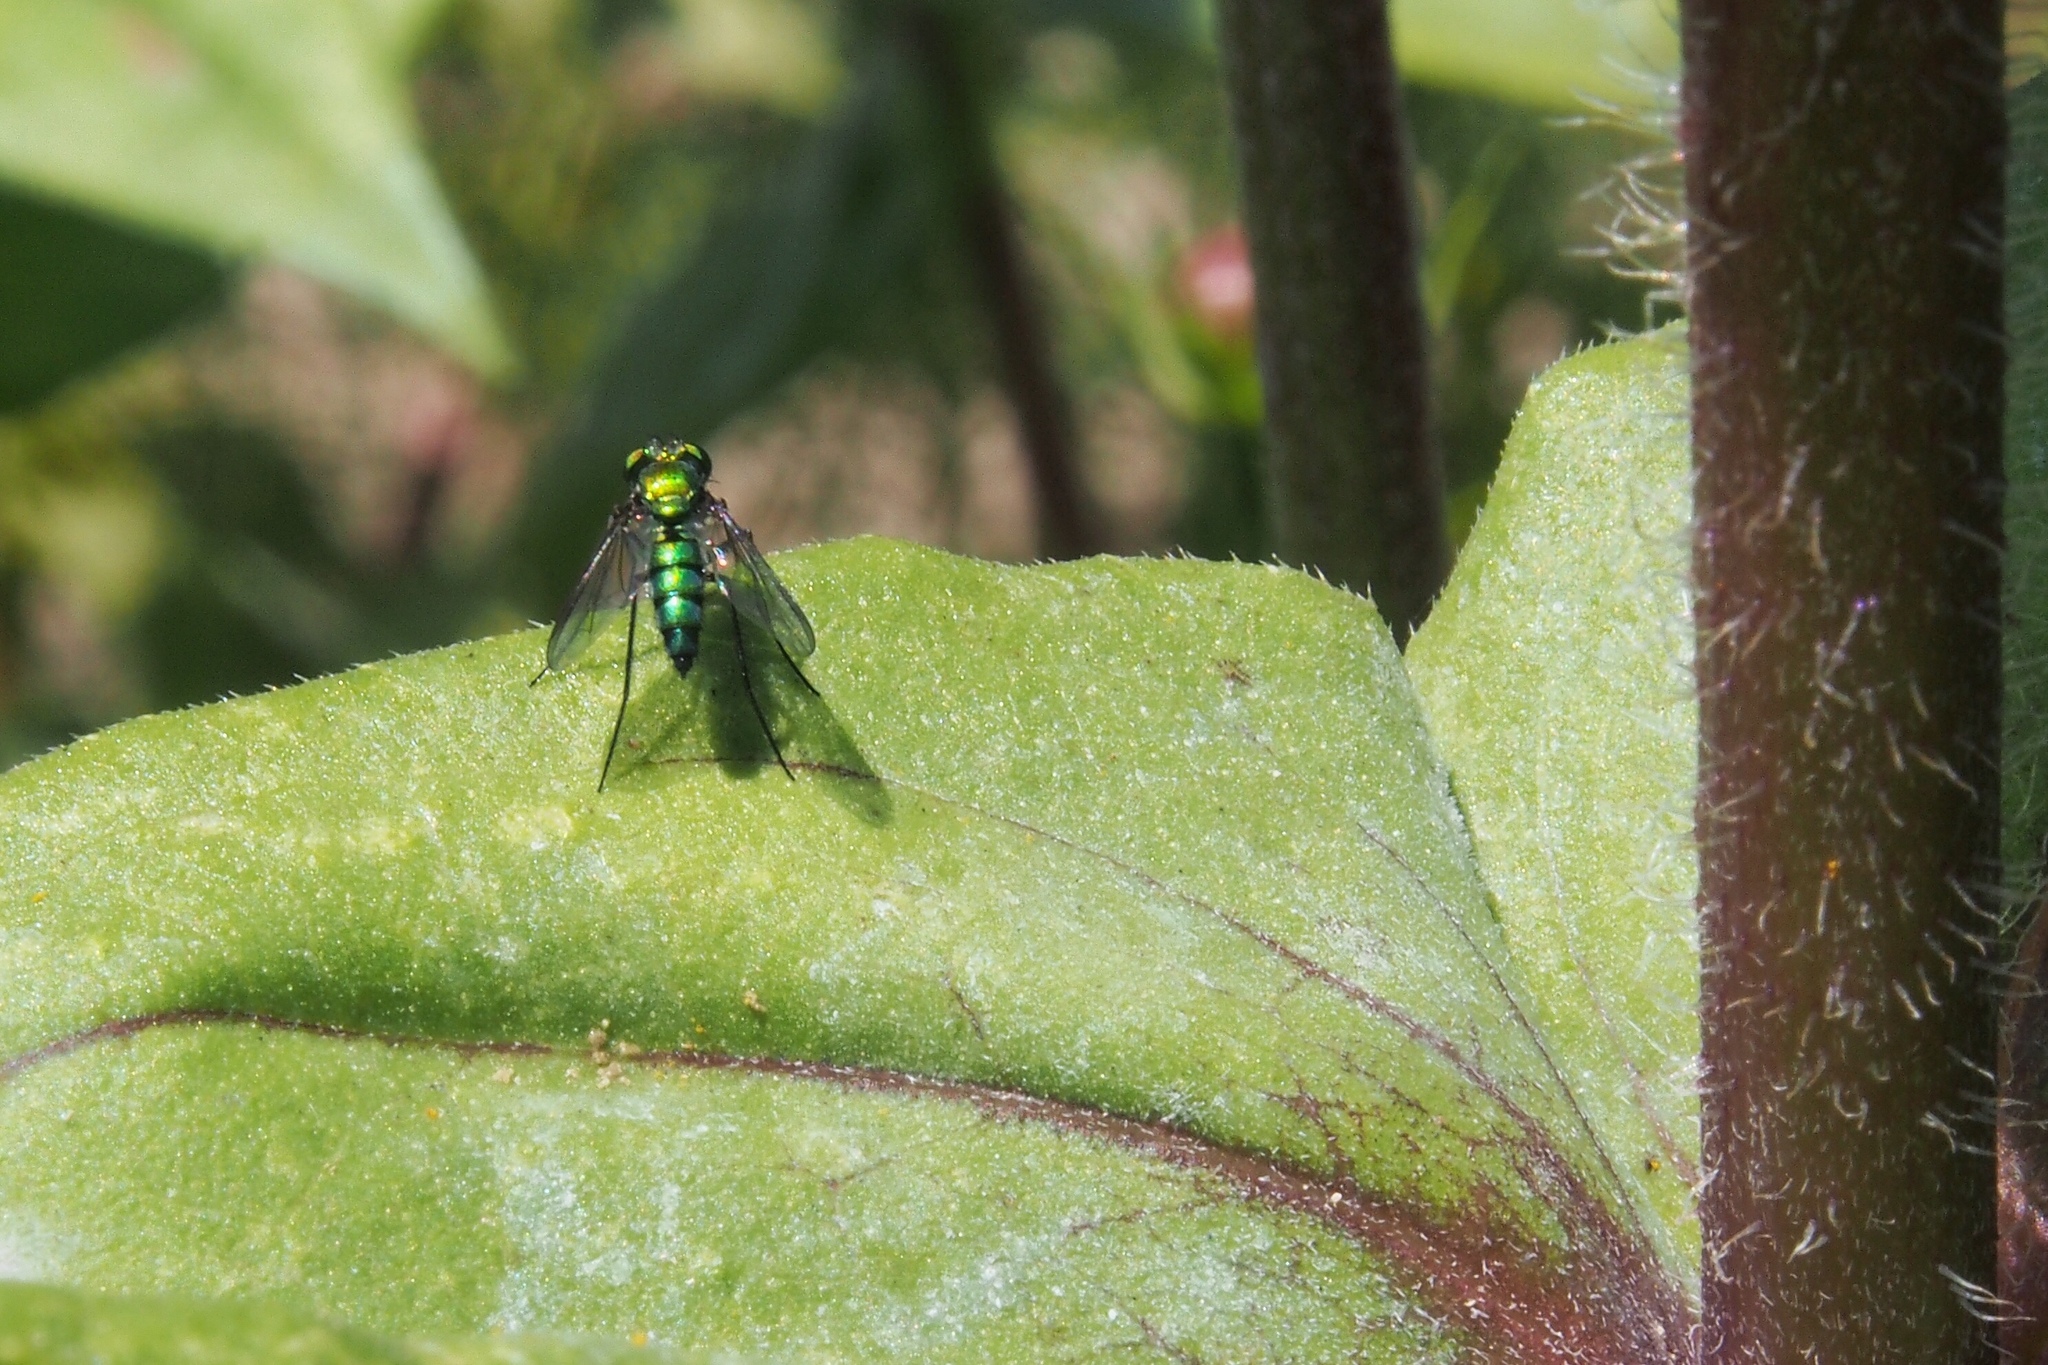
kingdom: Animalia
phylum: Arthropoda
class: Insecta
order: Diptera
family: Dolichopodidae
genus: Condylostylus
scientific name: Condylostylus longicornis
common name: Long-legged fly
